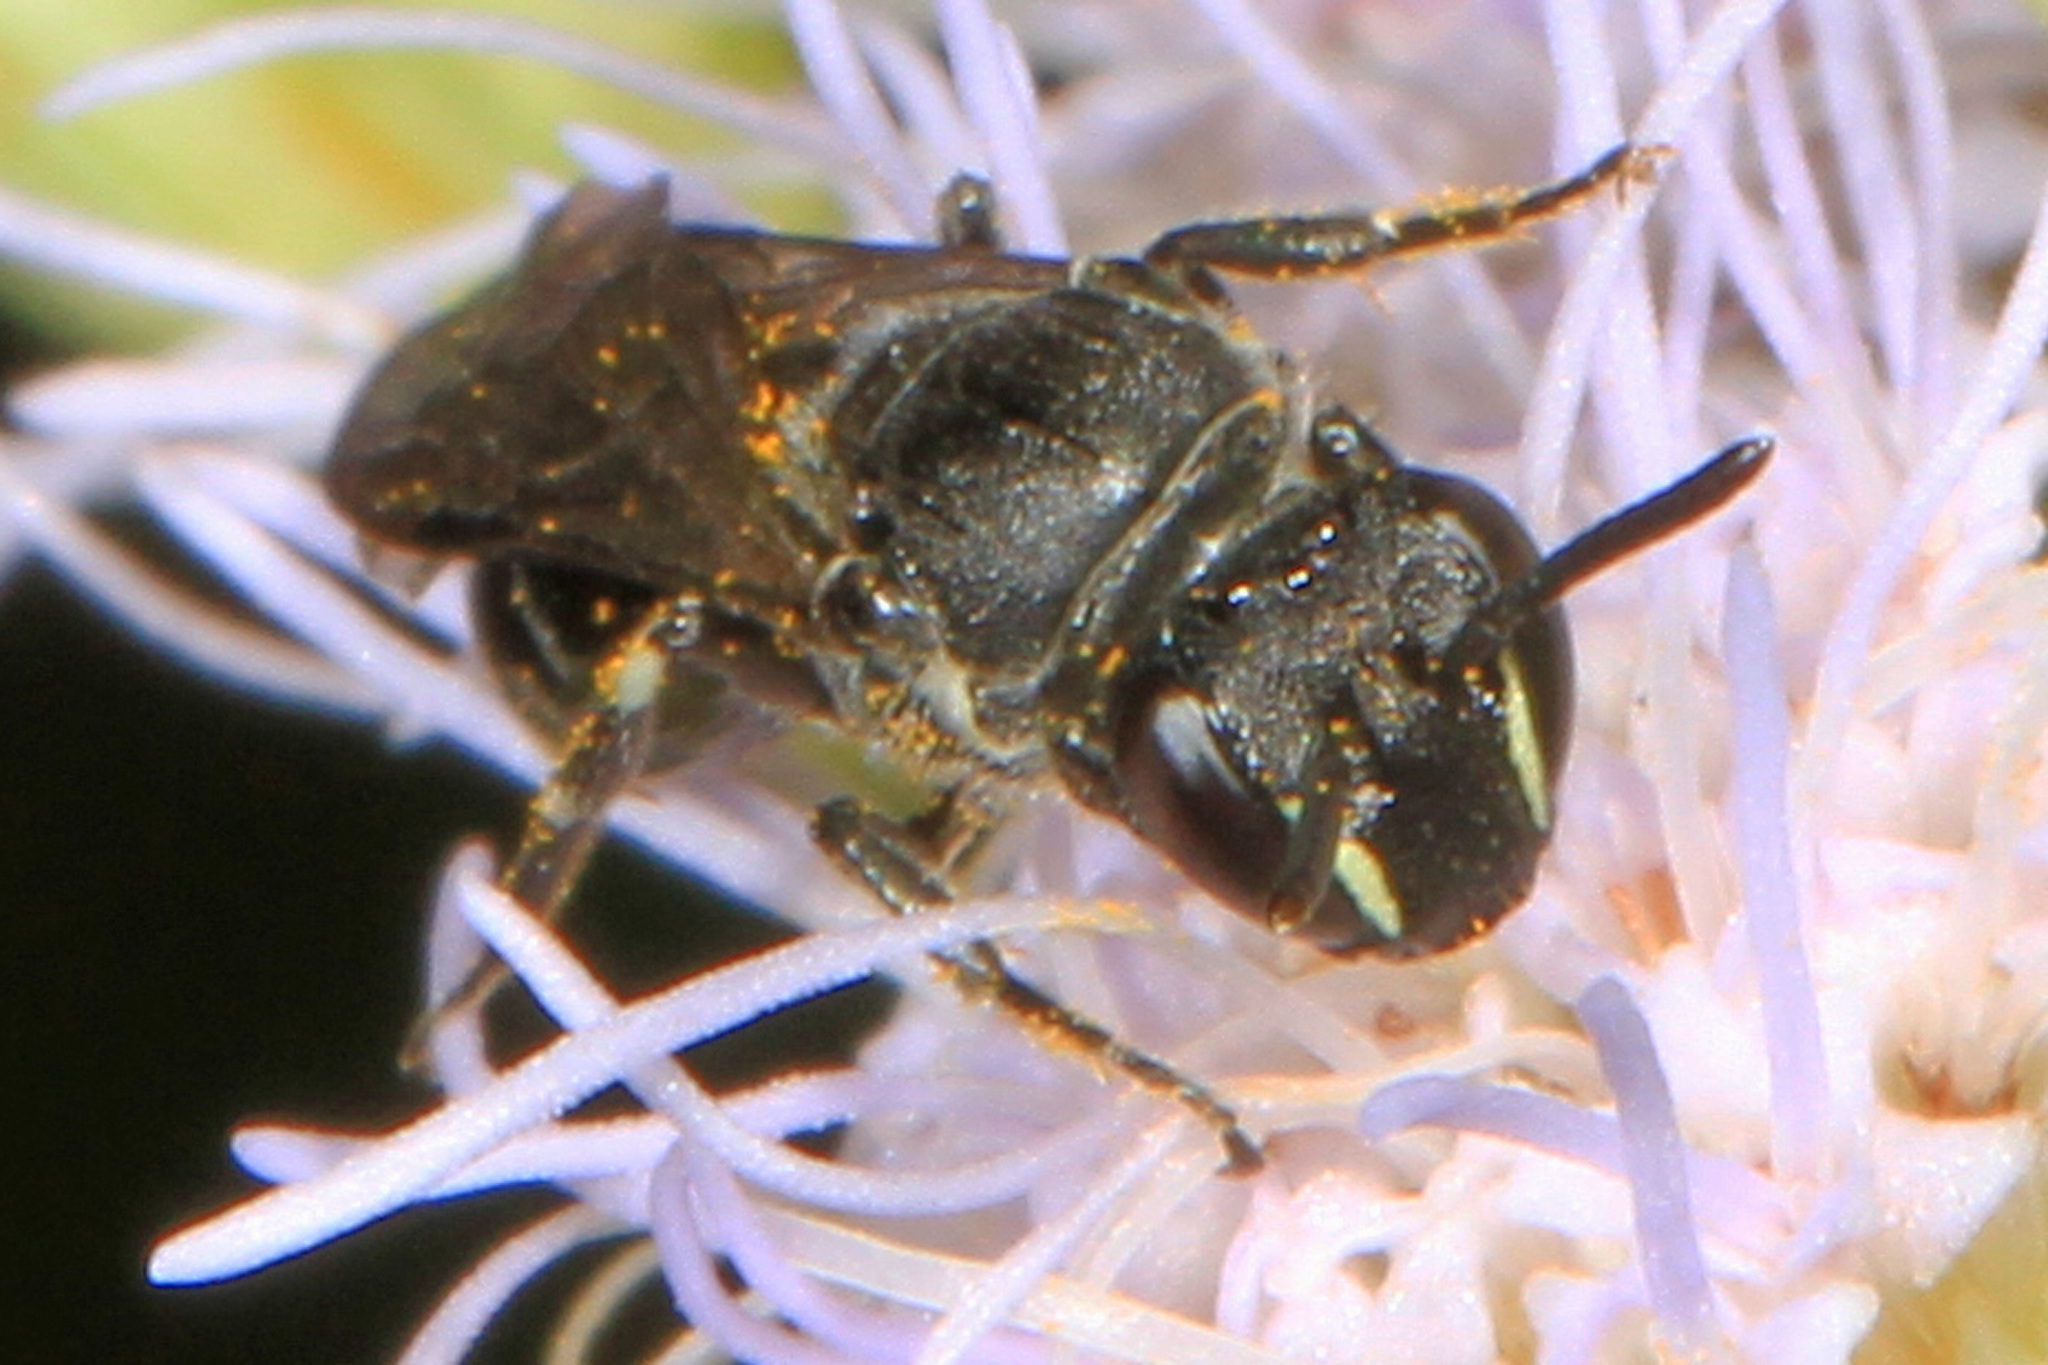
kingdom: Animalia
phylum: Arthropoda
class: Insecta
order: Hymenoptera
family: Colletidae
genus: Hylaeus
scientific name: Hylaeus schwarzii
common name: Schwarz's masked bee
